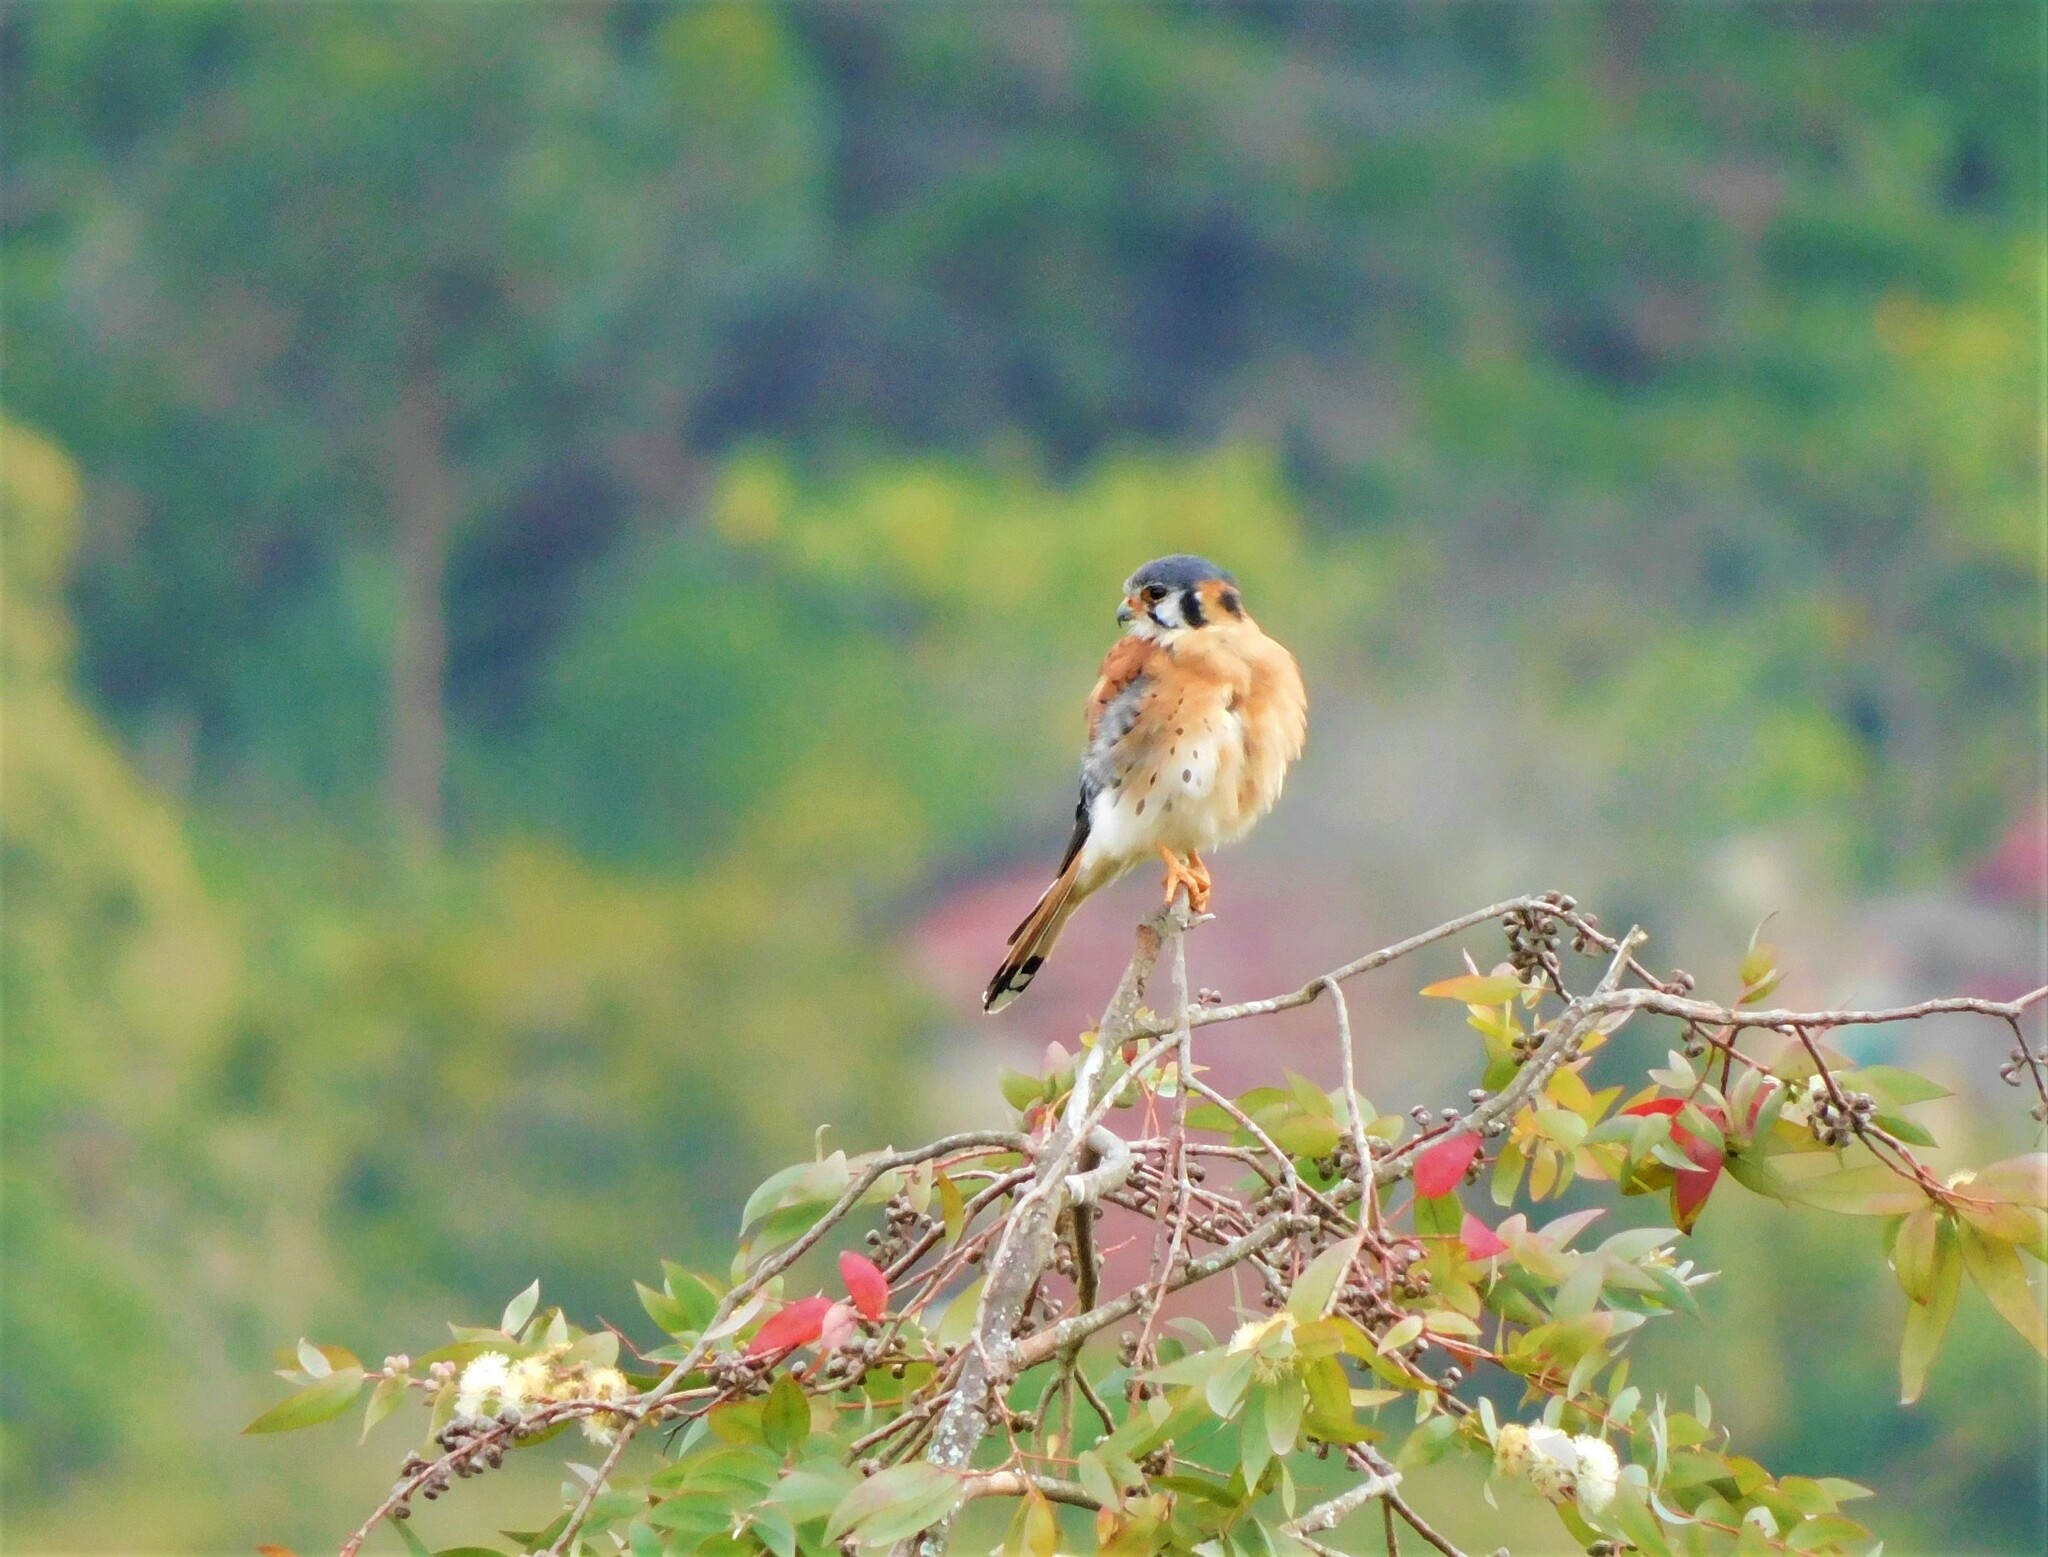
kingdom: Animalia
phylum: Chordata
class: Aves
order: Falconiformes
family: Falconidae
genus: Falco
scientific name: Falco sparverius
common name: American kestrel
